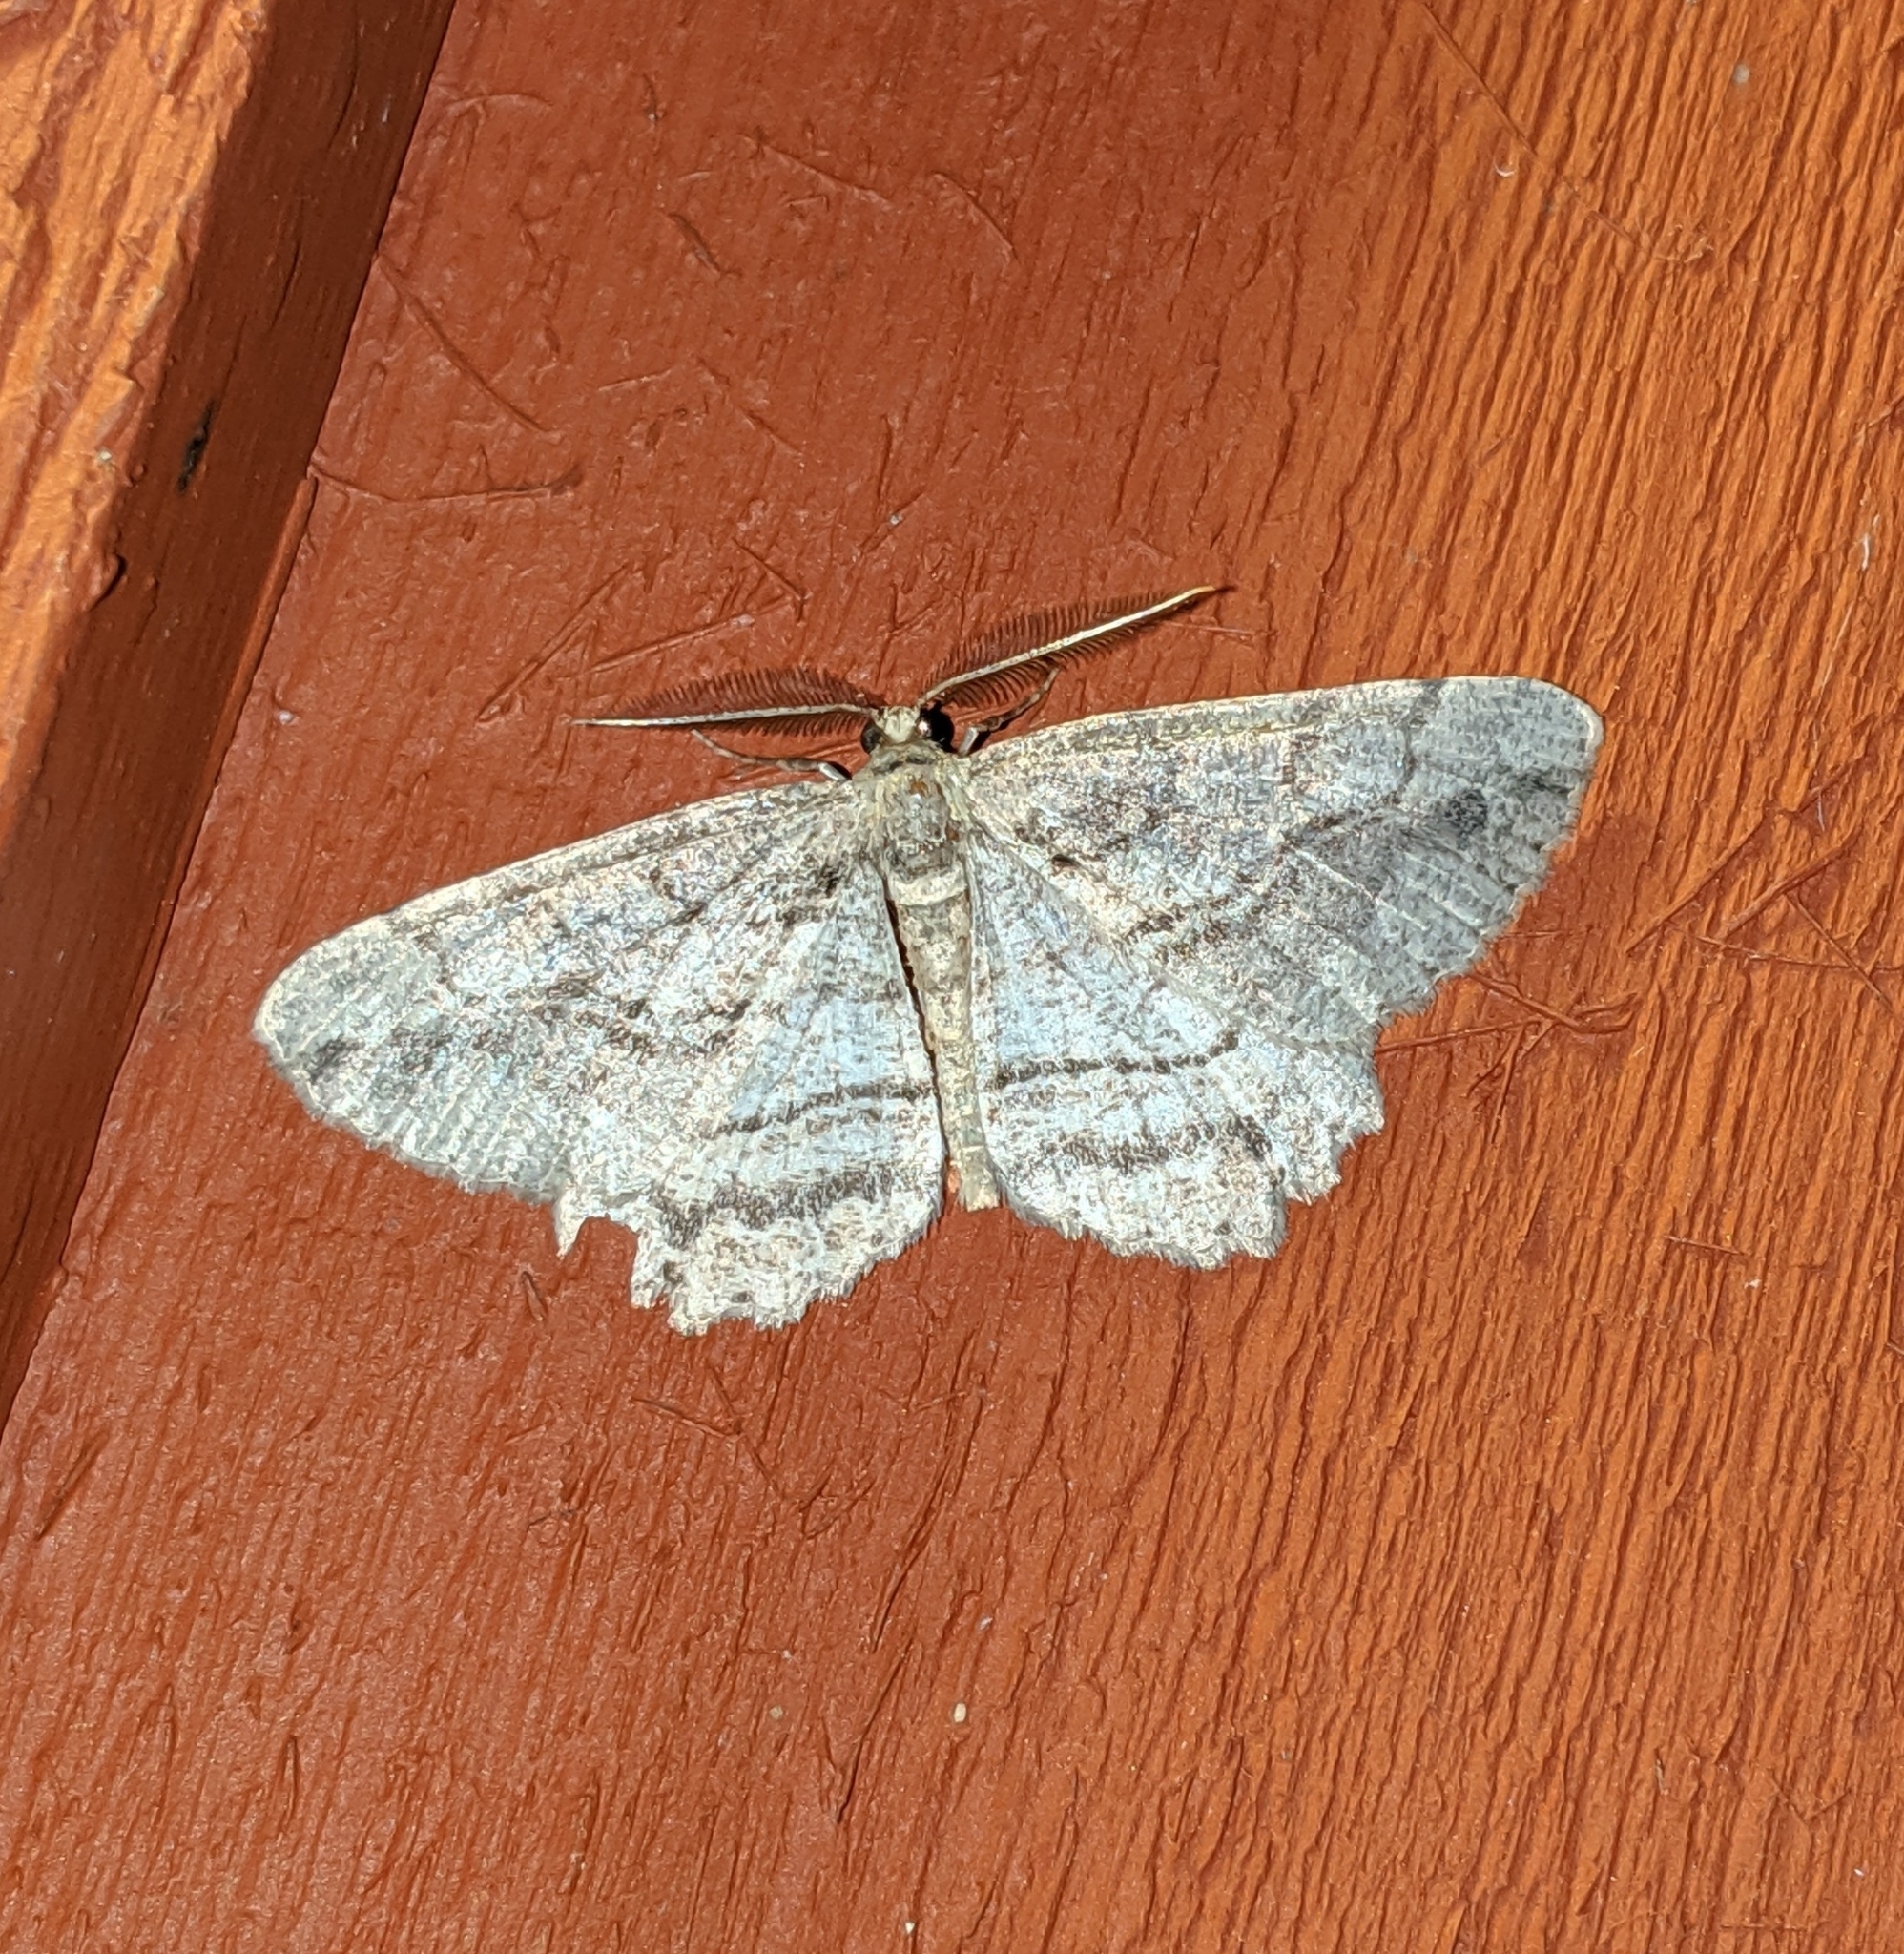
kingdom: Animalia
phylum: Arthropoda
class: Insecta
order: Lepidoptera
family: Geometridae
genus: Neoalcis
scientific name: Neoalcis californiaria
